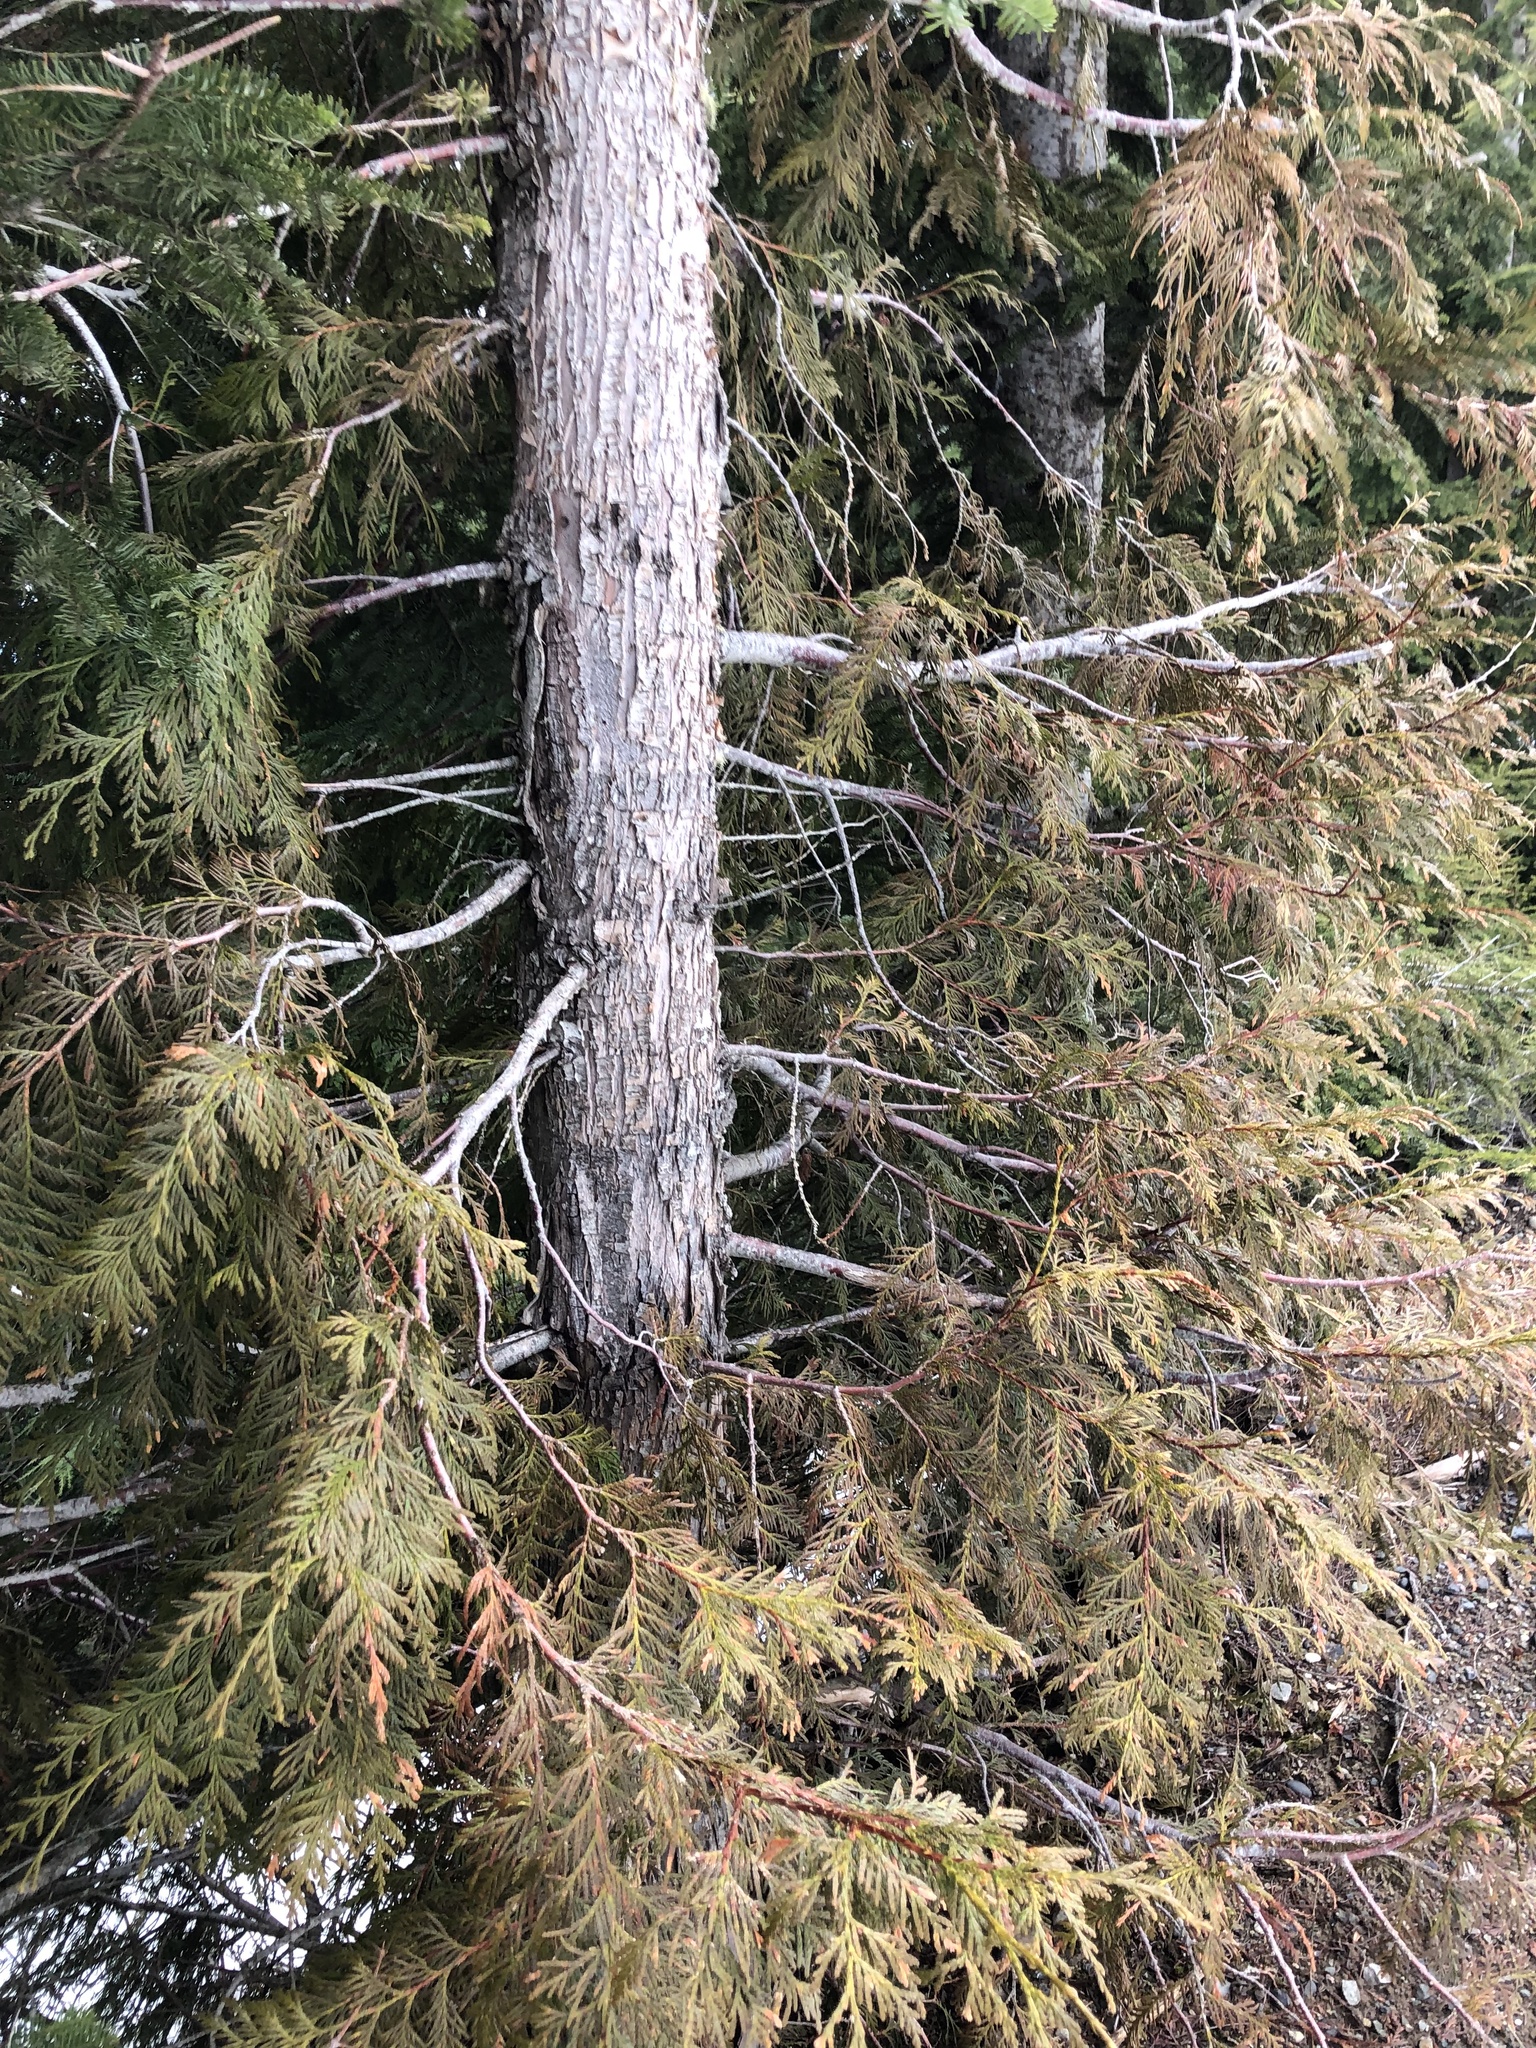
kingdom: Plantae
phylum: Tracheophyta
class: Pinopsida
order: Pinales
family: Cupressaceae
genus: Thuja
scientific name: Thuja plicata
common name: Western red-cedar
